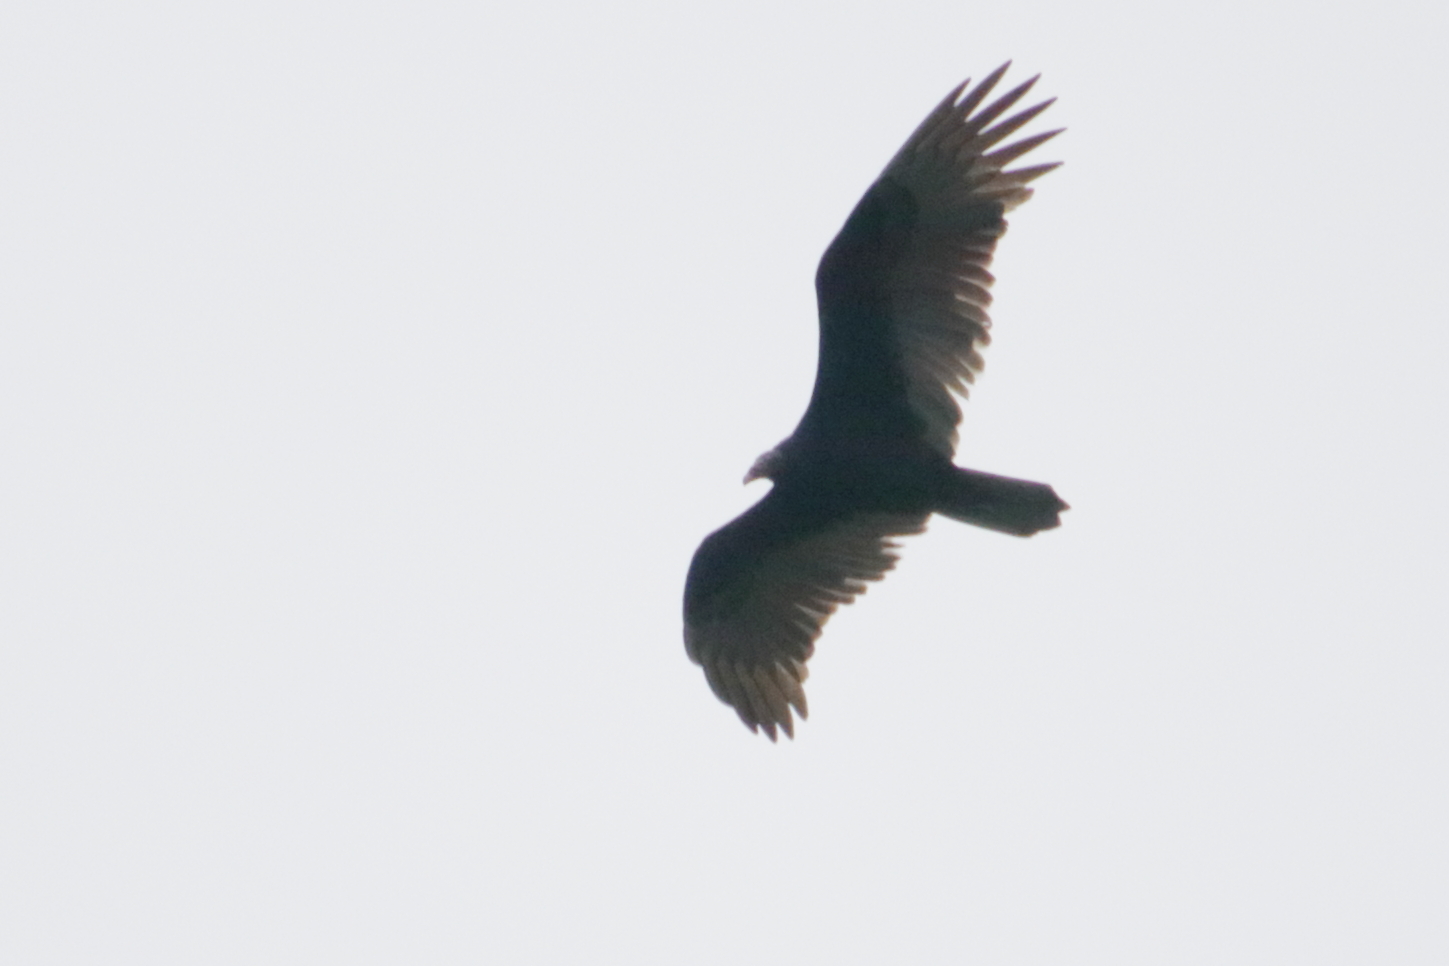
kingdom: Animalia
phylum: Chordata
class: Aves
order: Accipitriformes
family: Cathartidae
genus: Cathartes
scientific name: Cathartes aura
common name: Turkey vulture
